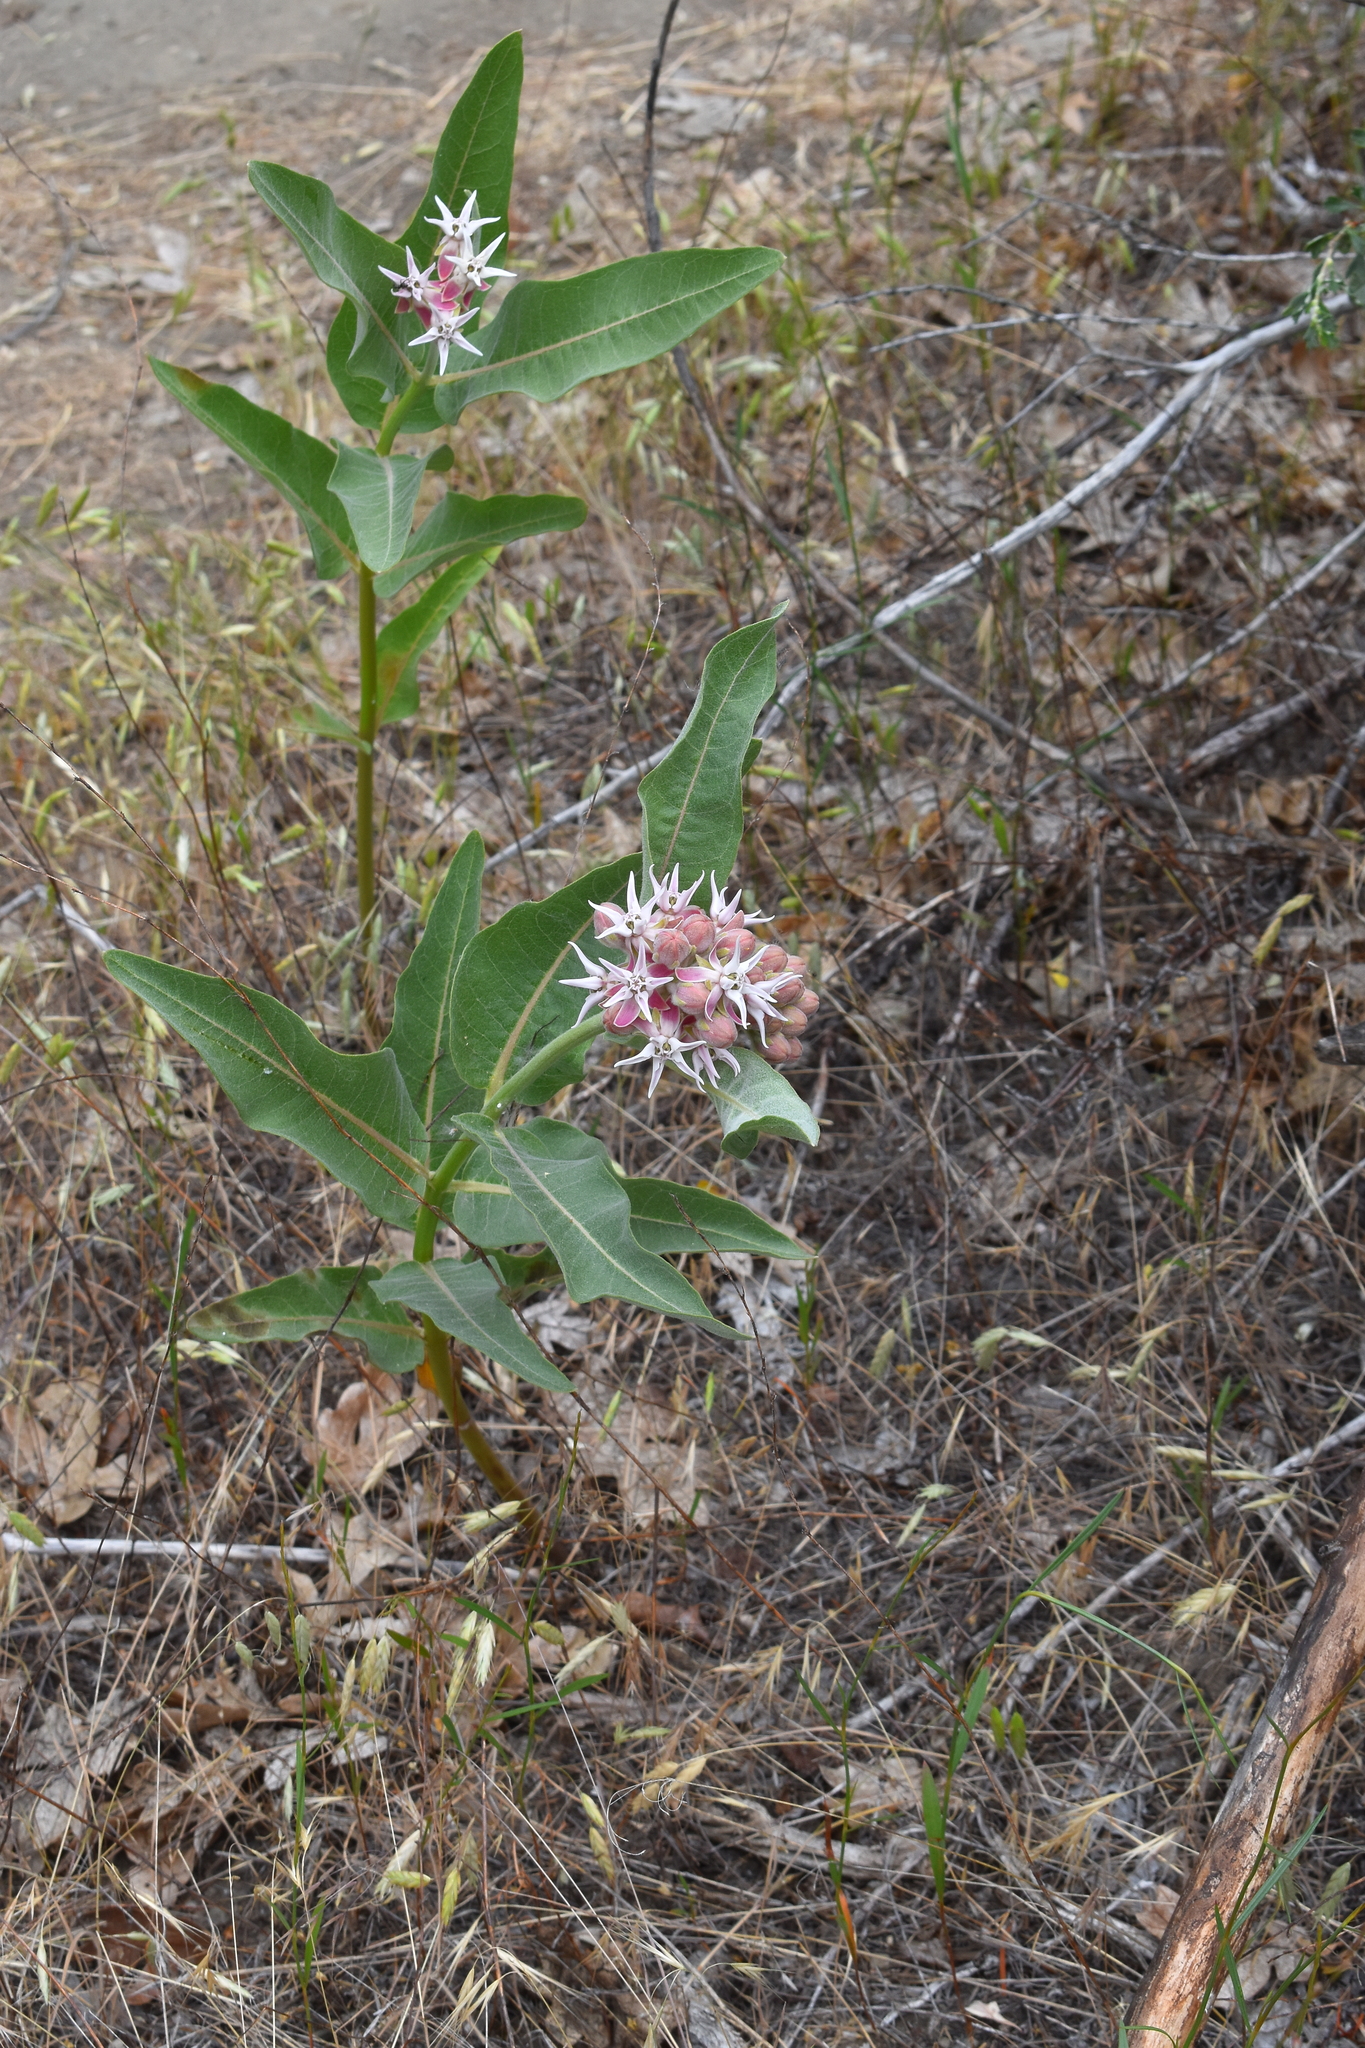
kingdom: Plantae
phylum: Tracheophyta
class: Magnoliopsida
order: Gentianales
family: Apocynaceae
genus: Asclepias
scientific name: Asclepias speciosa
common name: Showy milkweed
